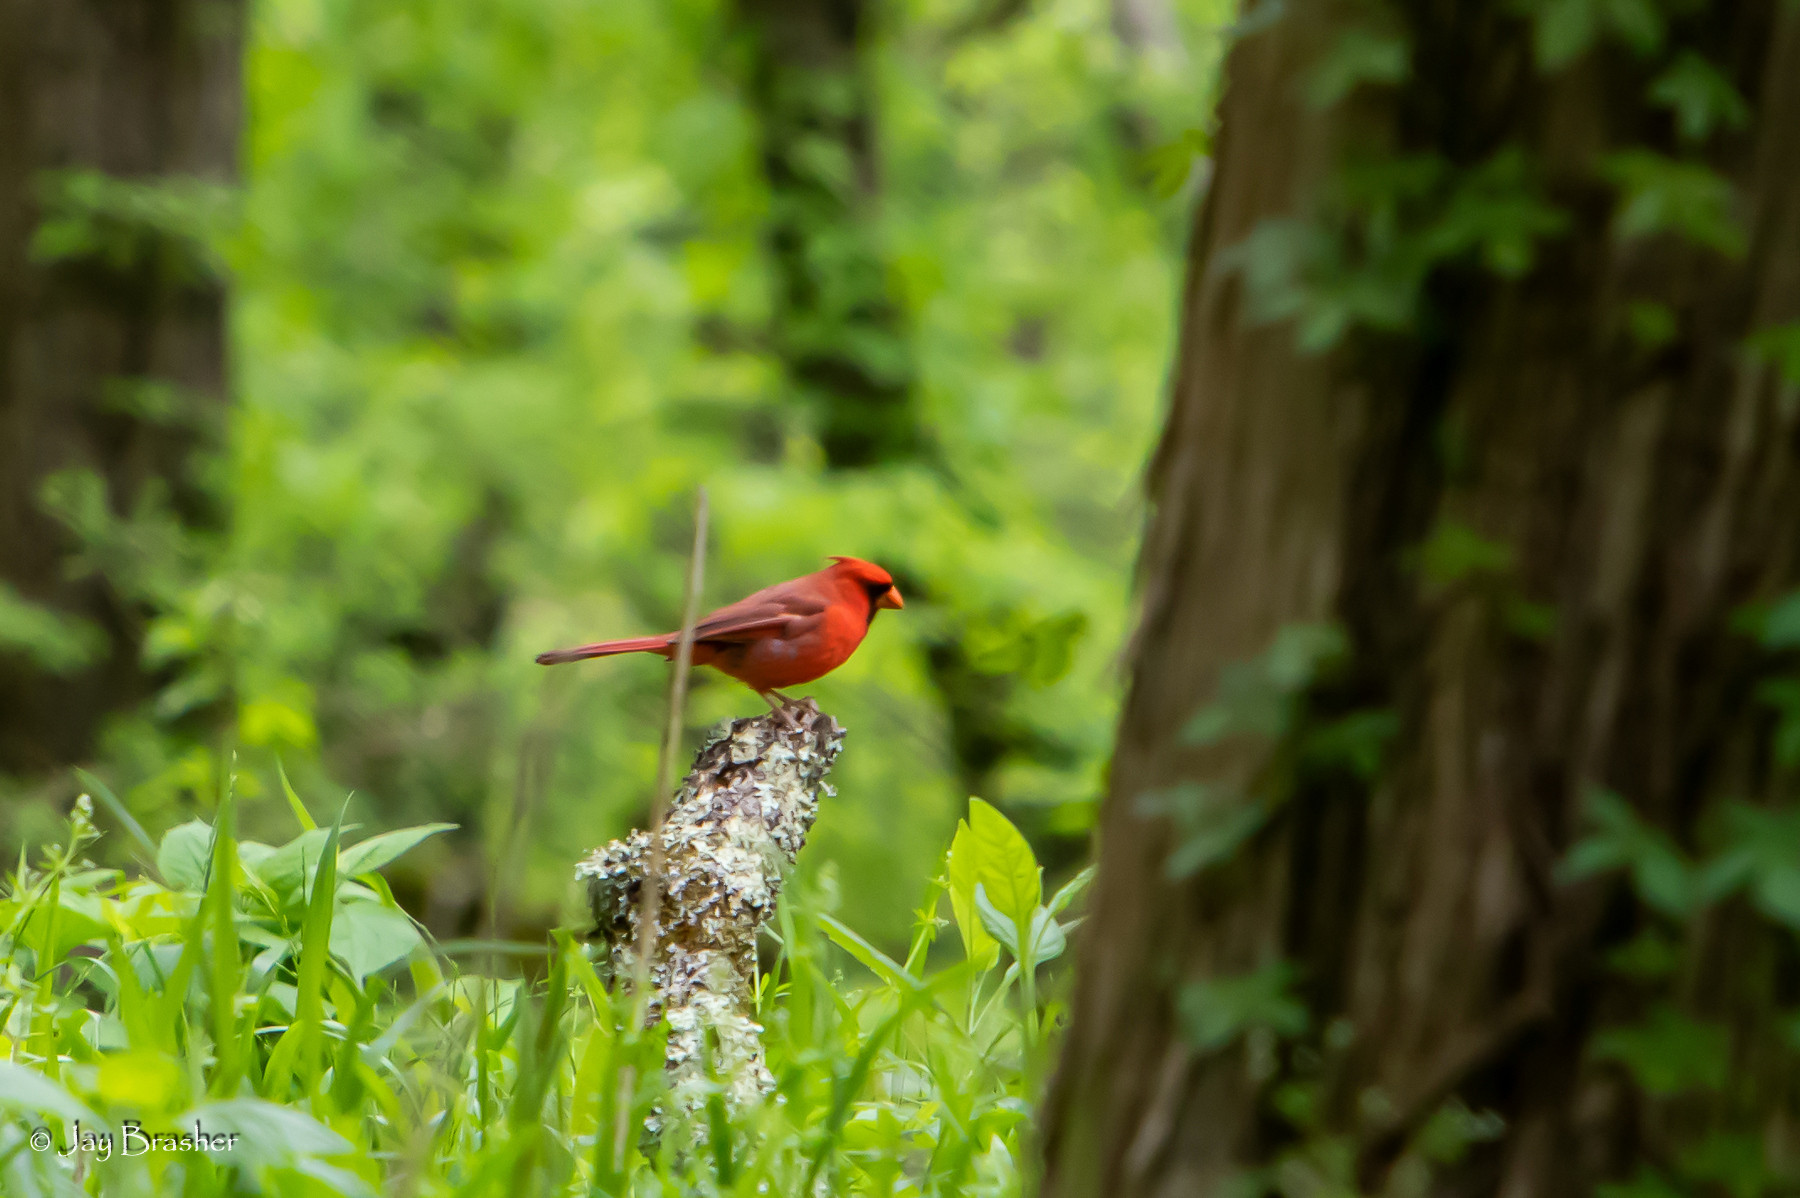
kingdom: Animalia
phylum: Chordata
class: Aves
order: Passeriformes
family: Cardinalidae
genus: Cardinalis
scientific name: Cardinalis cardinalis
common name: Northern cardinal
